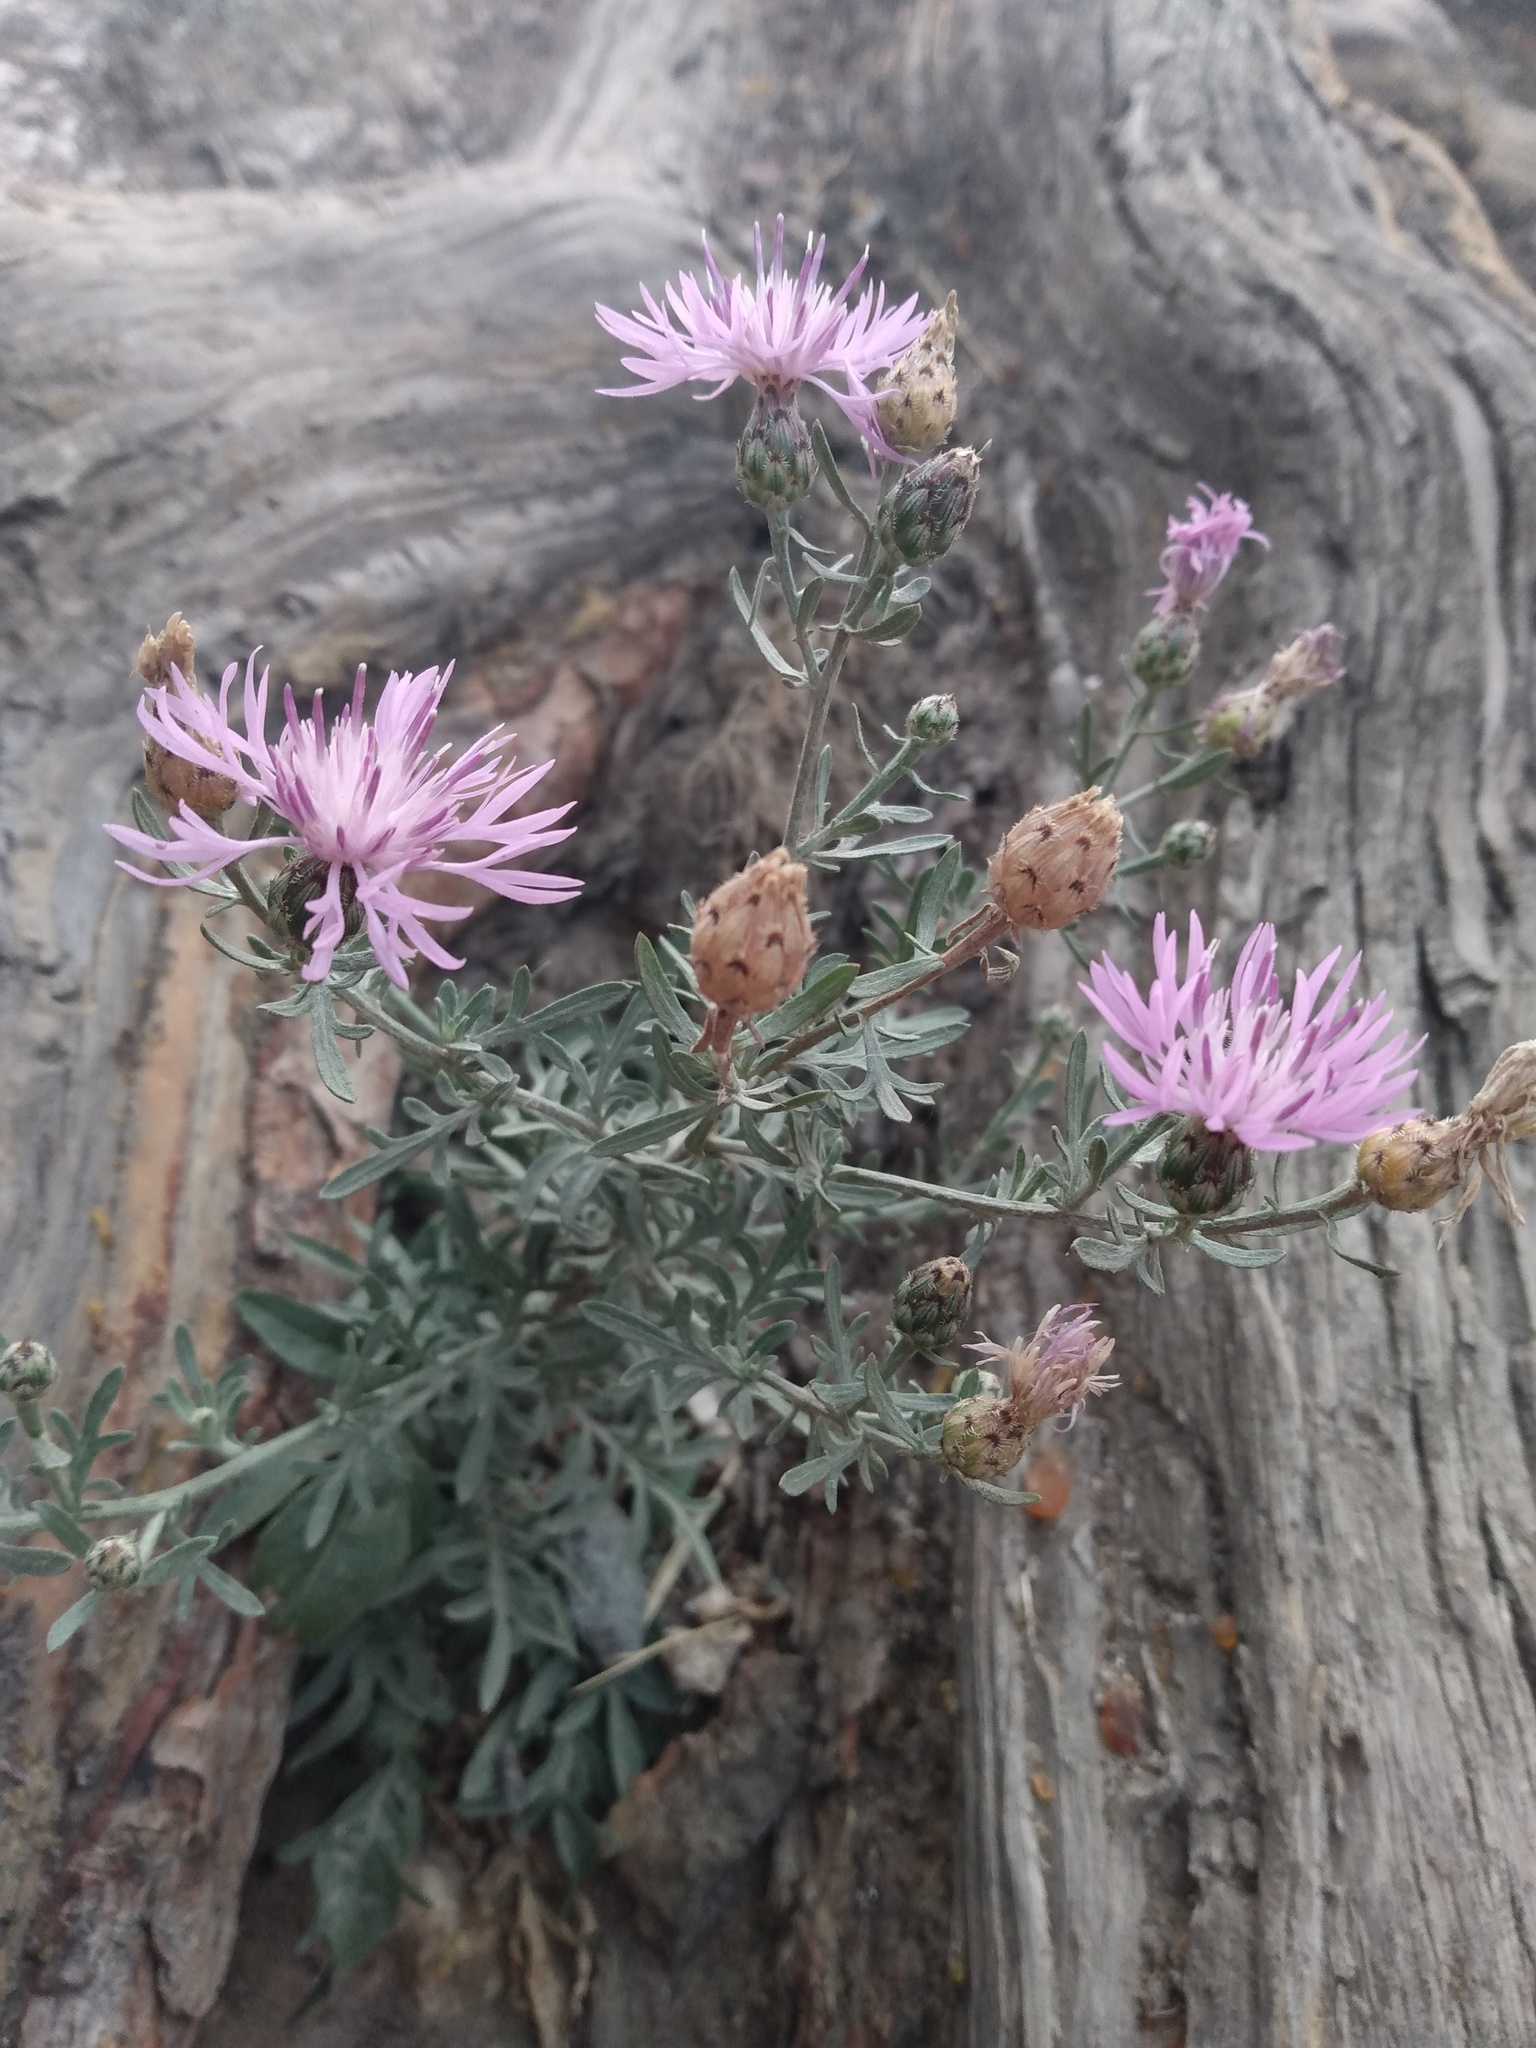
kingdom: Plantae
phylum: Tracheophyta
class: Magnoliopsida
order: Asterales
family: Asteraceae
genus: Centaurea
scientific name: Centaurea stoebe
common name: Spotted knapweed
